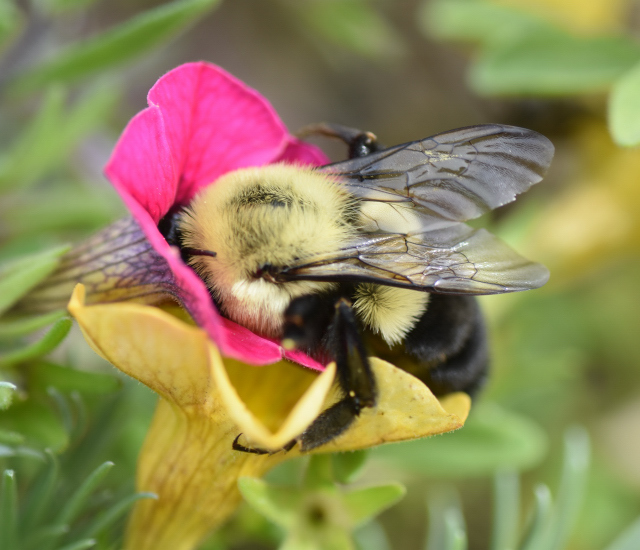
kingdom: Animalia
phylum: Arthropoda
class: Insecta
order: Hymenoptera
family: Apidae
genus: Bombus
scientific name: Bombus impatiens
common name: Common eastern bumble bee
